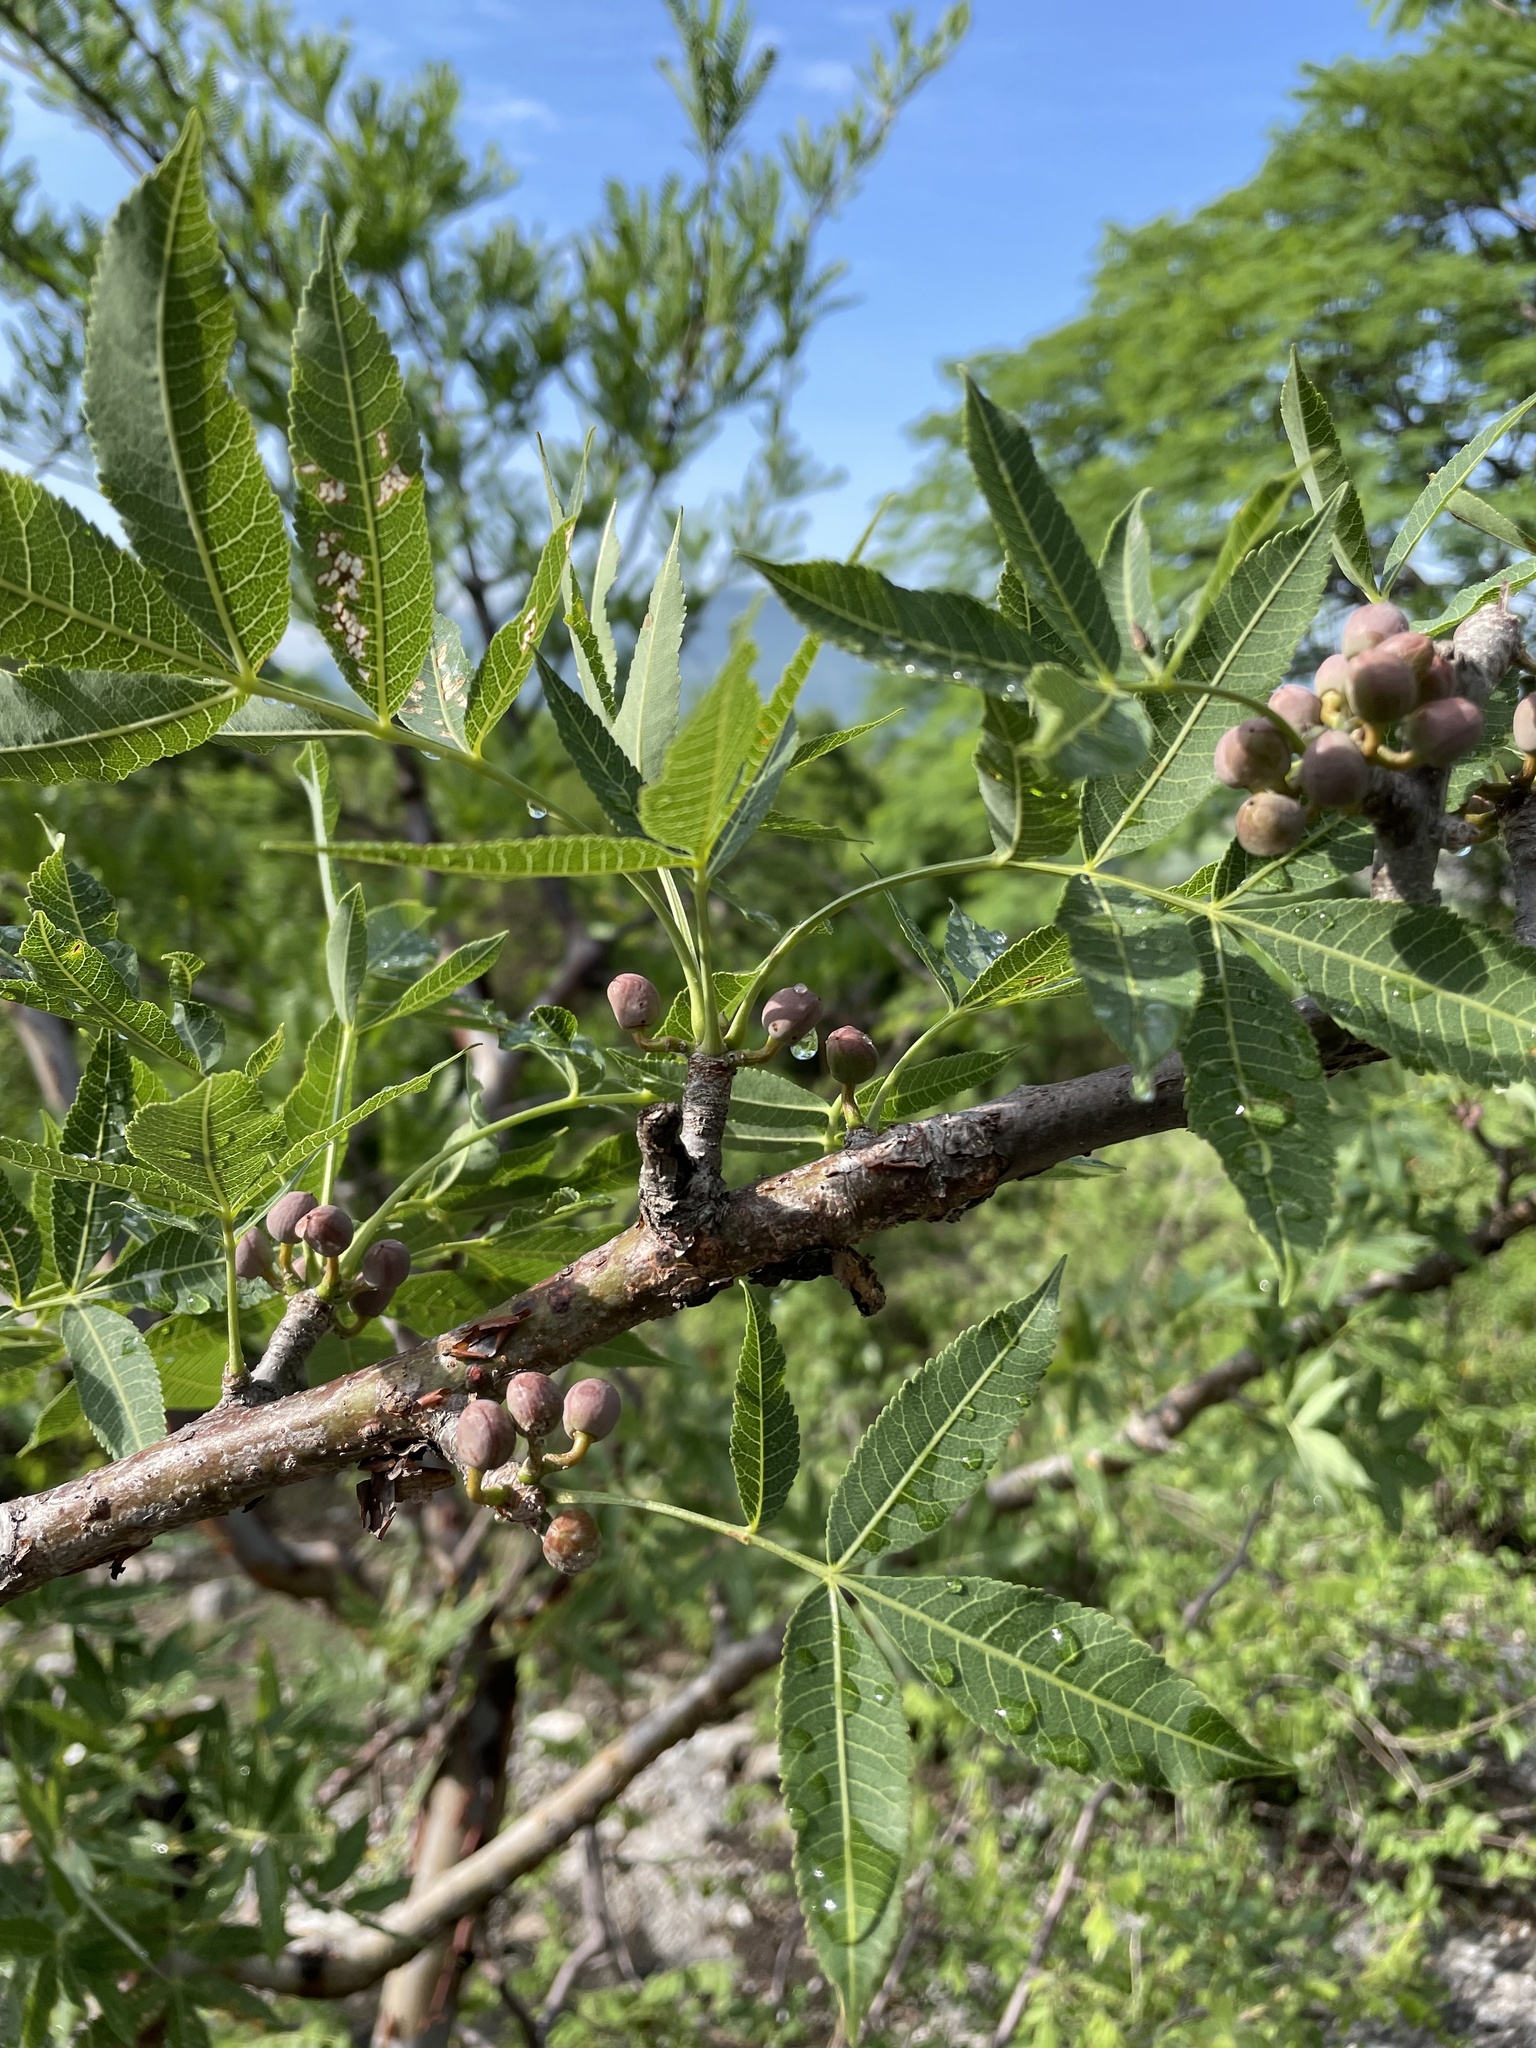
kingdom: Plantae
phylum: Tracheophyta
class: Magnoliopsida
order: Sapindales
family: Burseraceae
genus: Bursera
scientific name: Bursera lancifolia
